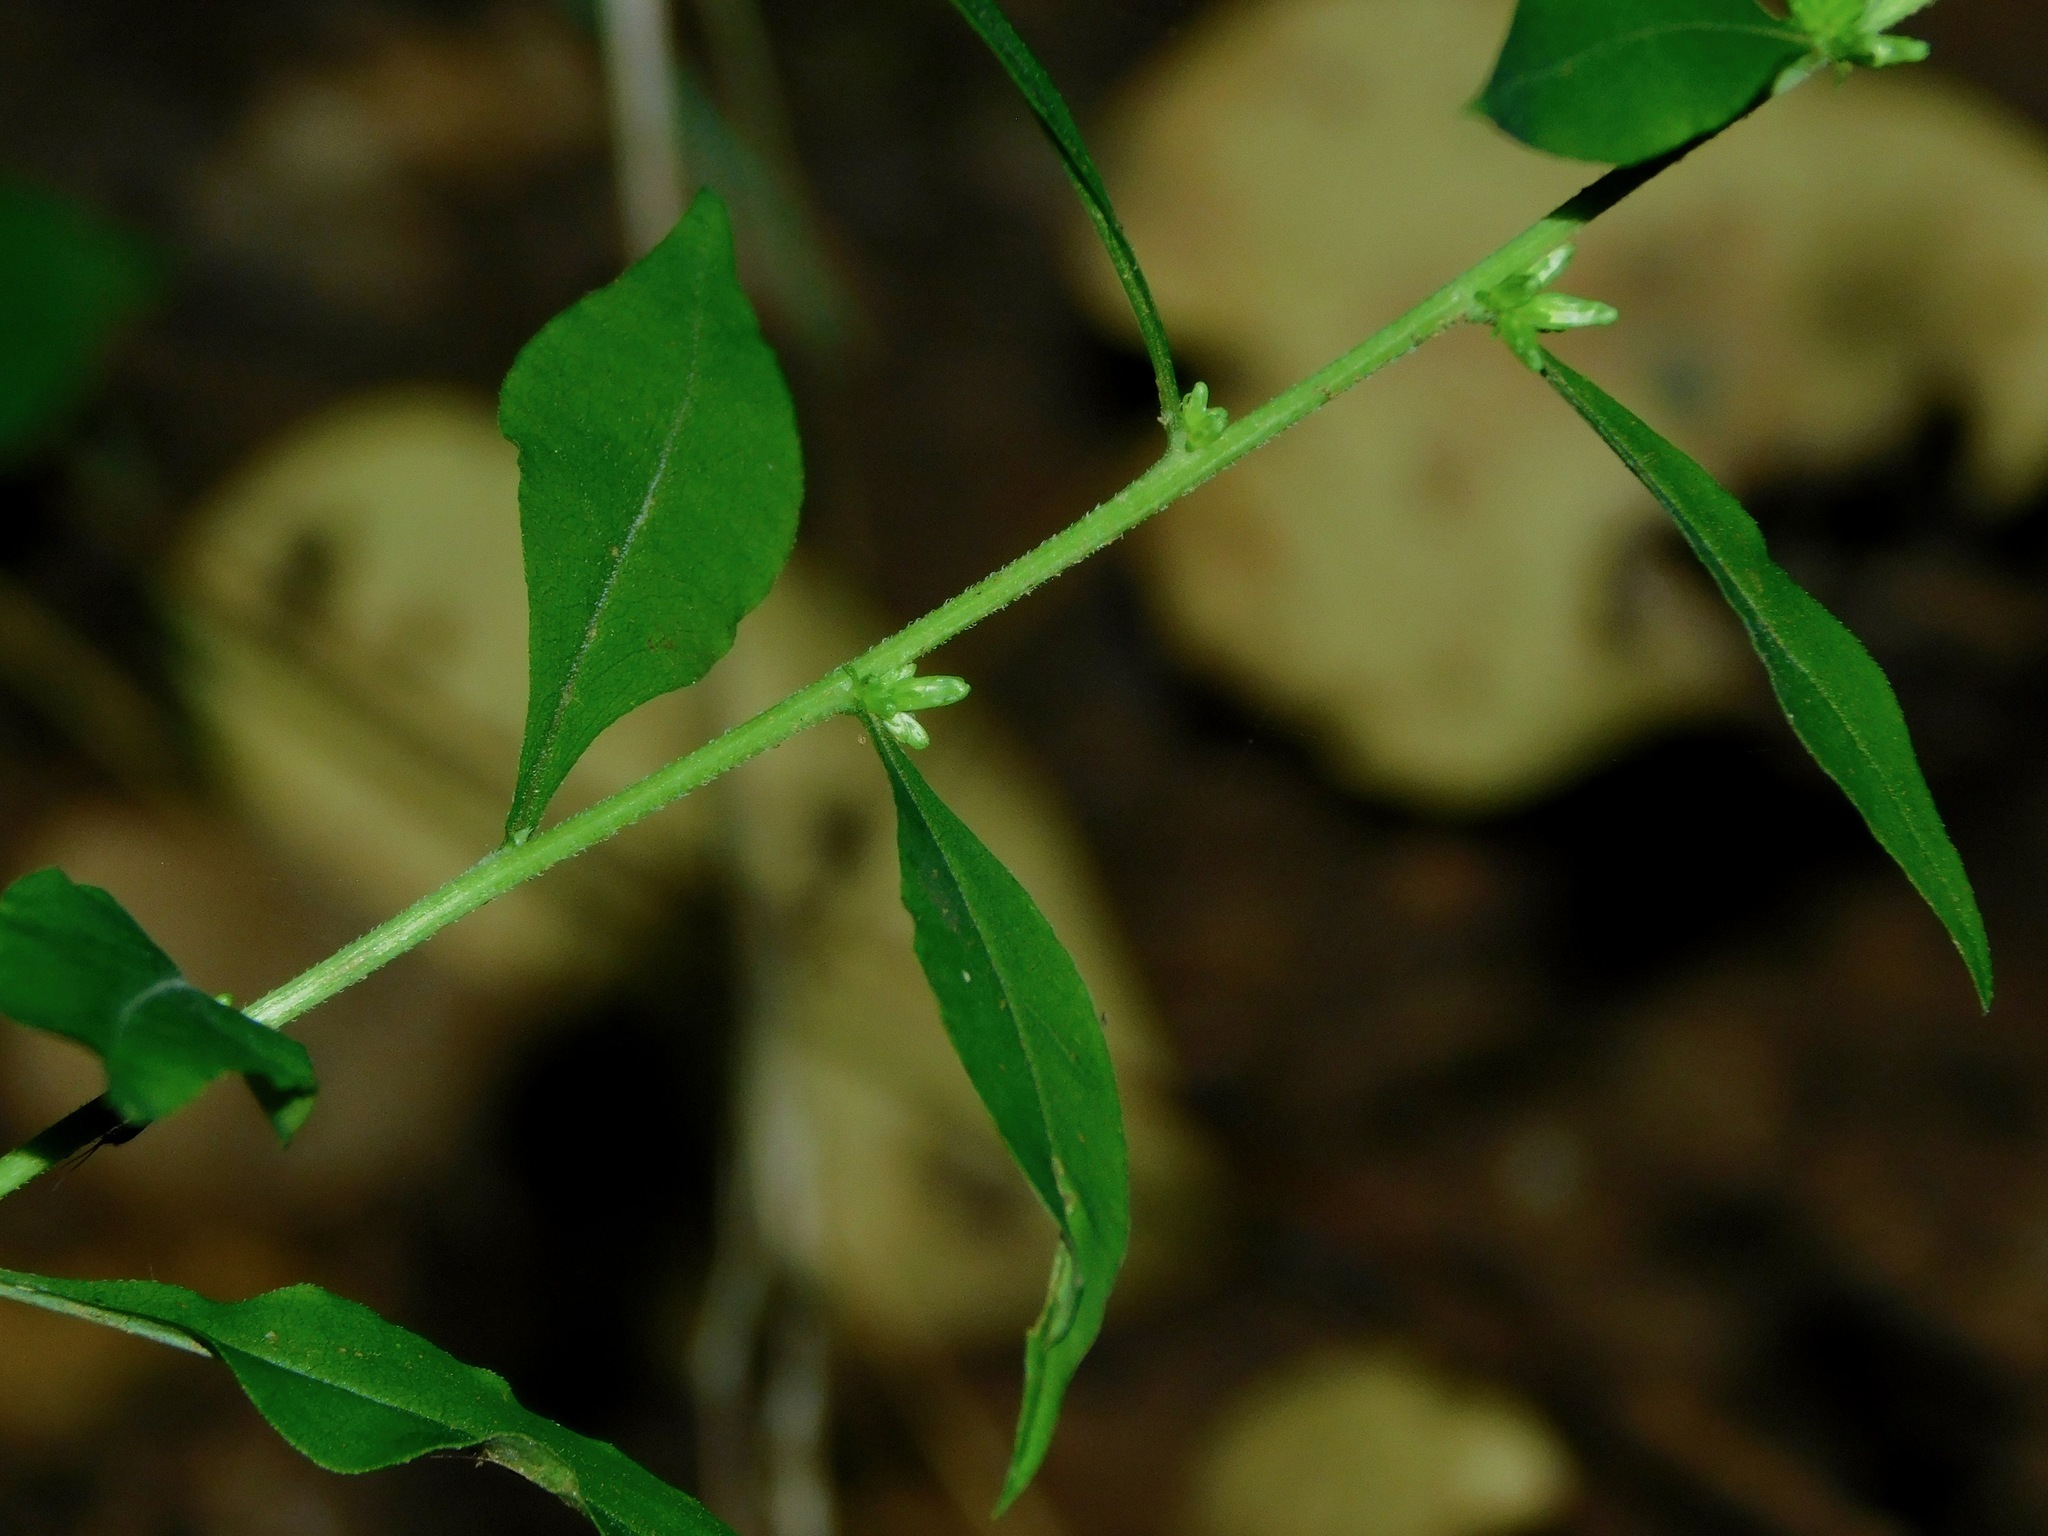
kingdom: Plantae
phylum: Tracheophyta
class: Magnoliopsida
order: Asterales
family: Asteraceae
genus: Solidago
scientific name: Solidago bicolor
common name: Silverrod
